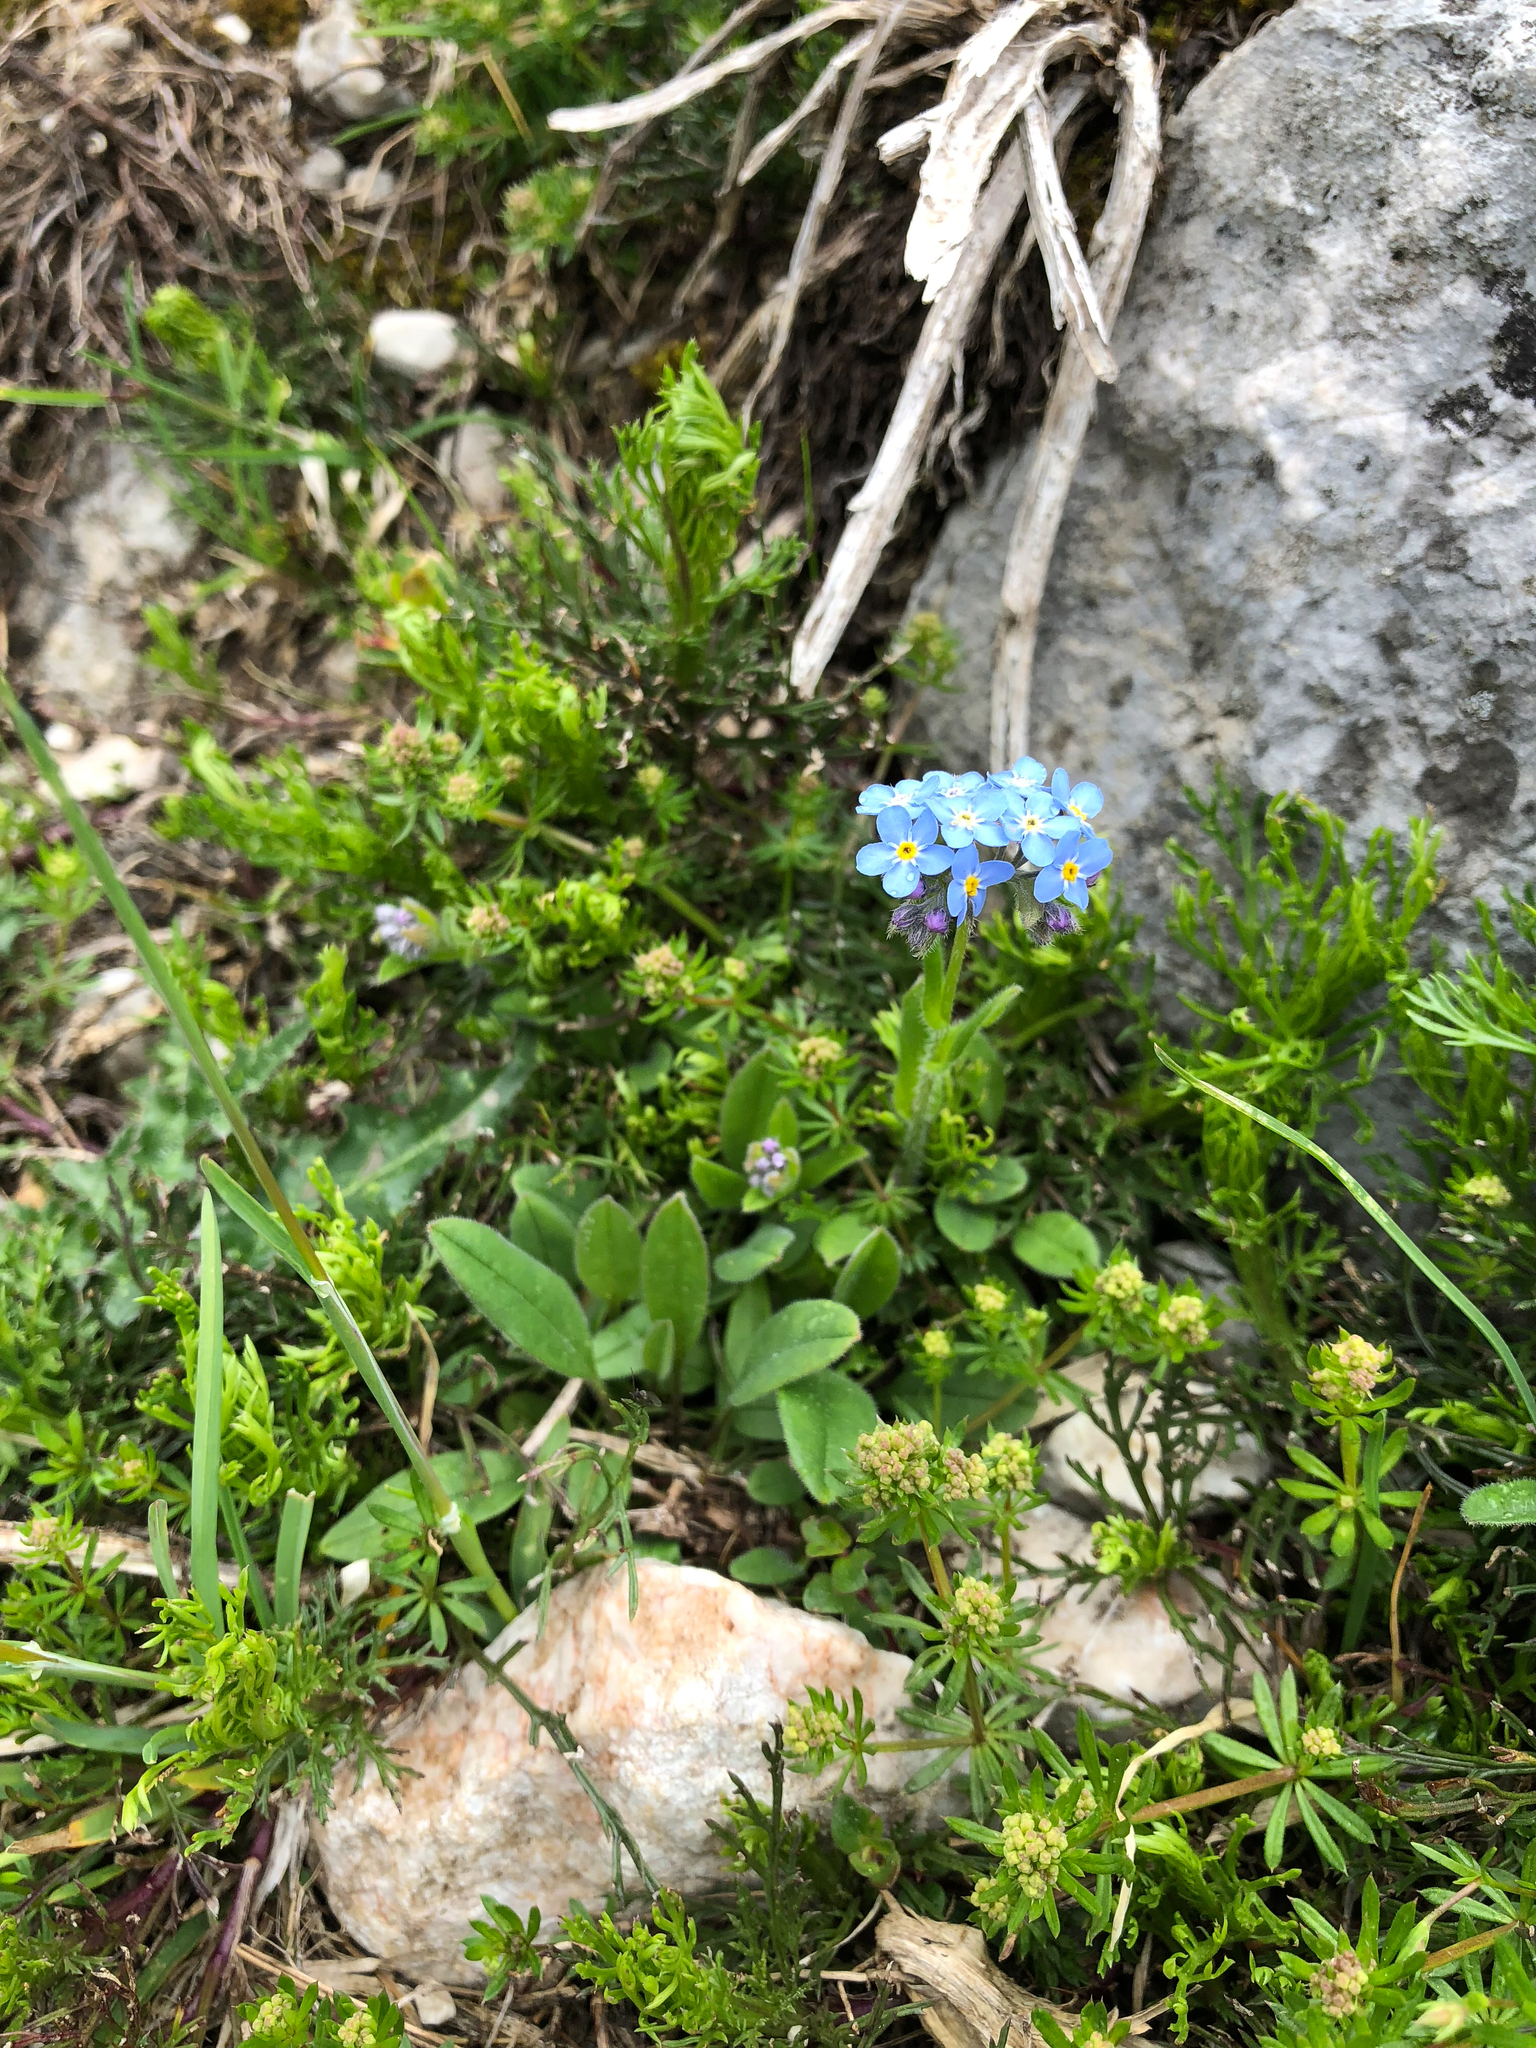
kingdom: Plantae
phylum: Tracheophyta
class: Magnoliopsida
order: Boraginales
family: Boraginaceae
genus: Myosotis
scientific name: Myosotis alpestris
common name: Alpine forget-me-not
